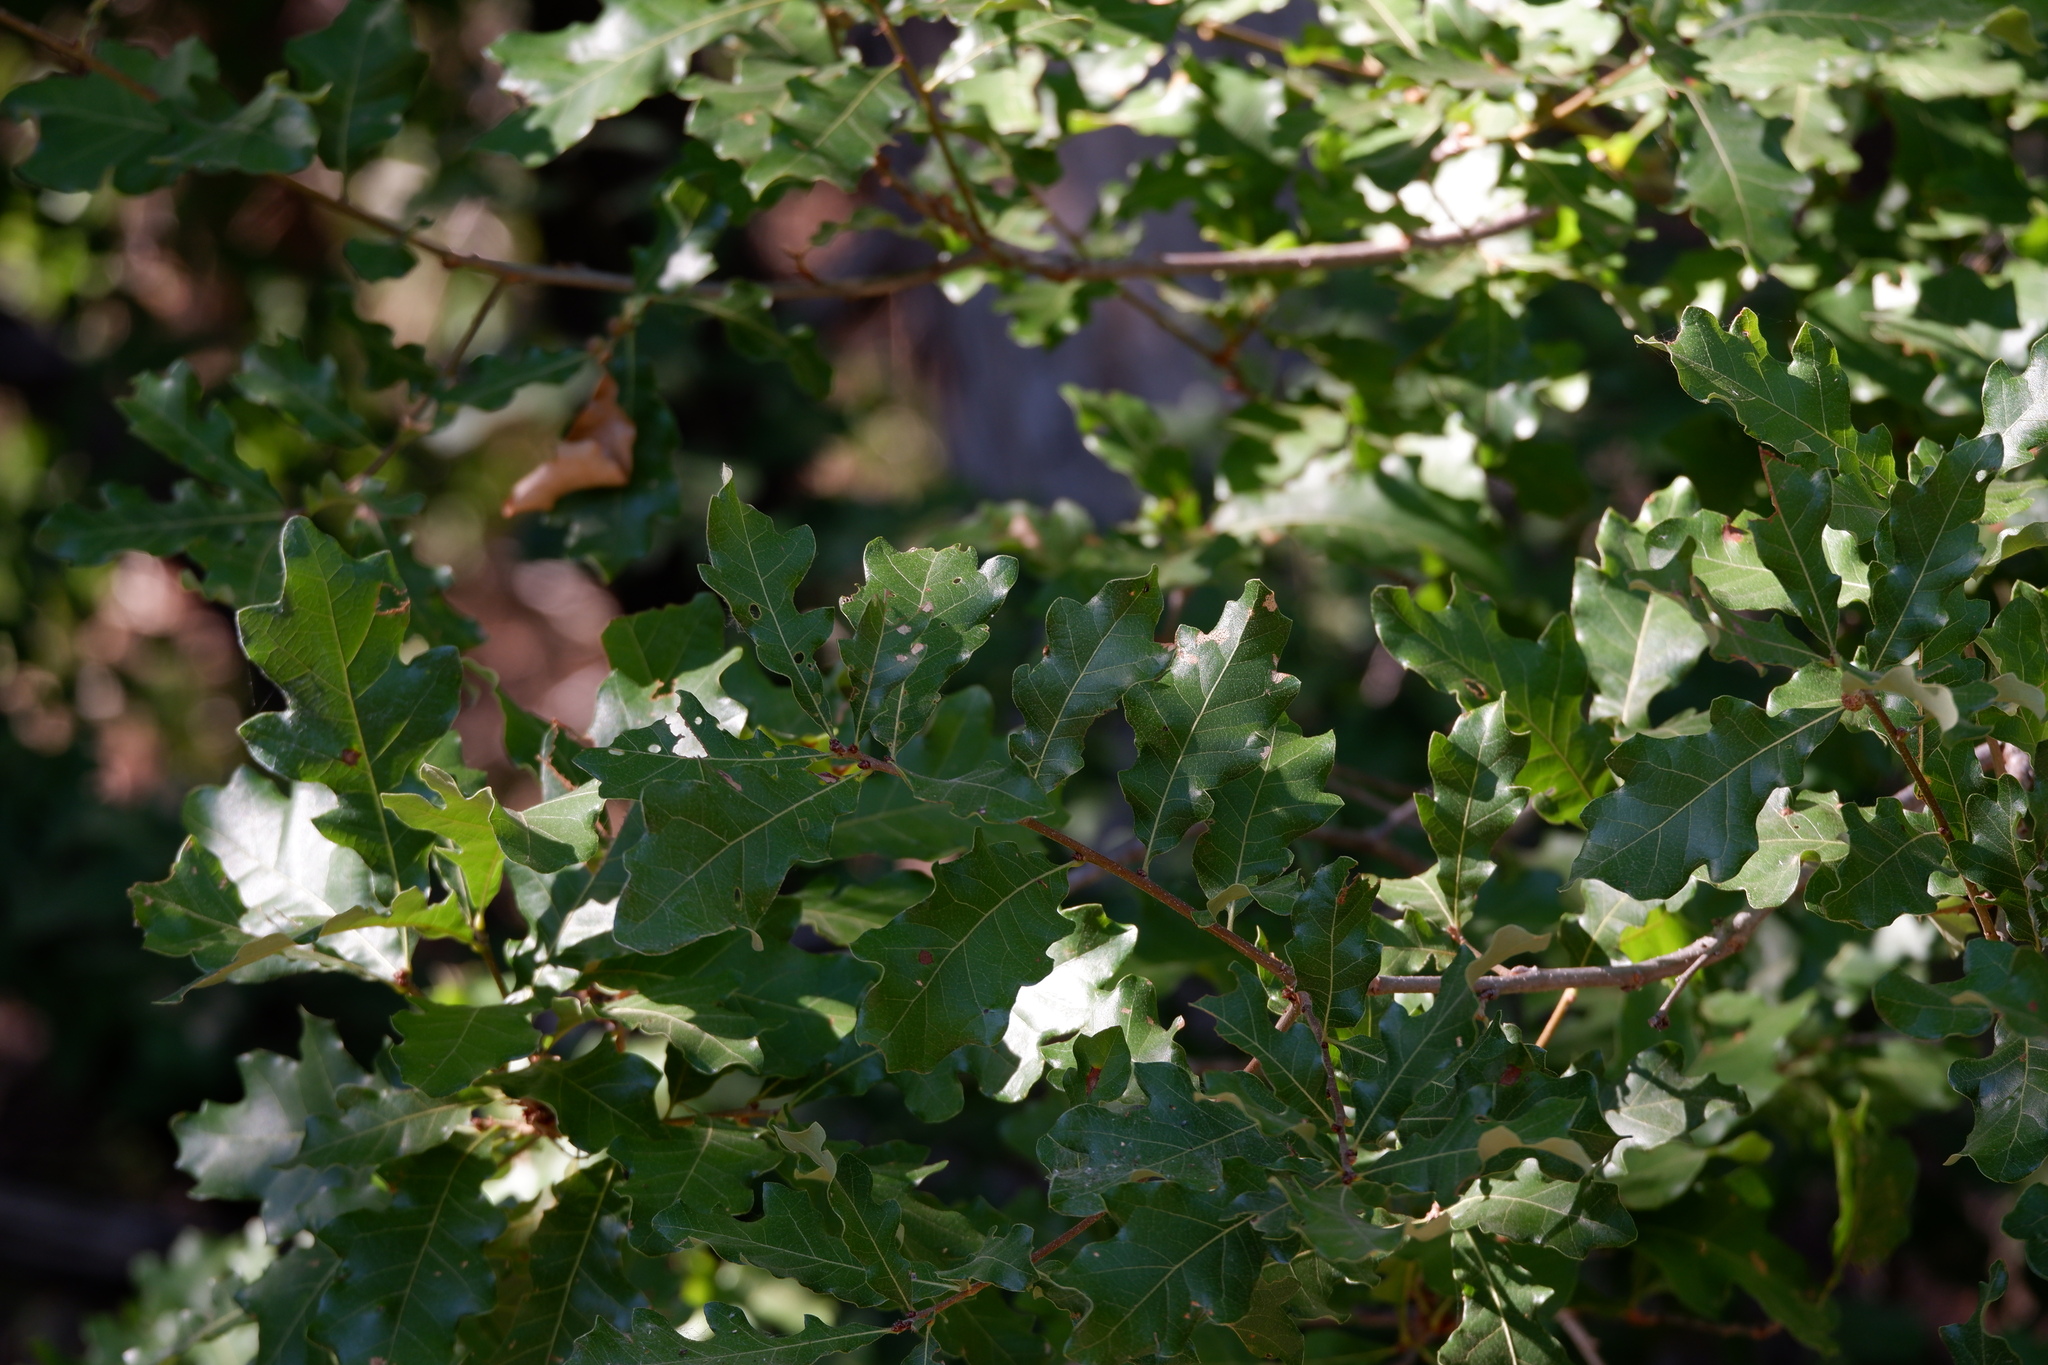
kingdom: Plantae
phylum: Tracheophyta
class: Magnoliopsida
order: Fagales
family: Fagaceae
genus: Quercus
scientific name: Quercus sinuata
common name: Durand oak
